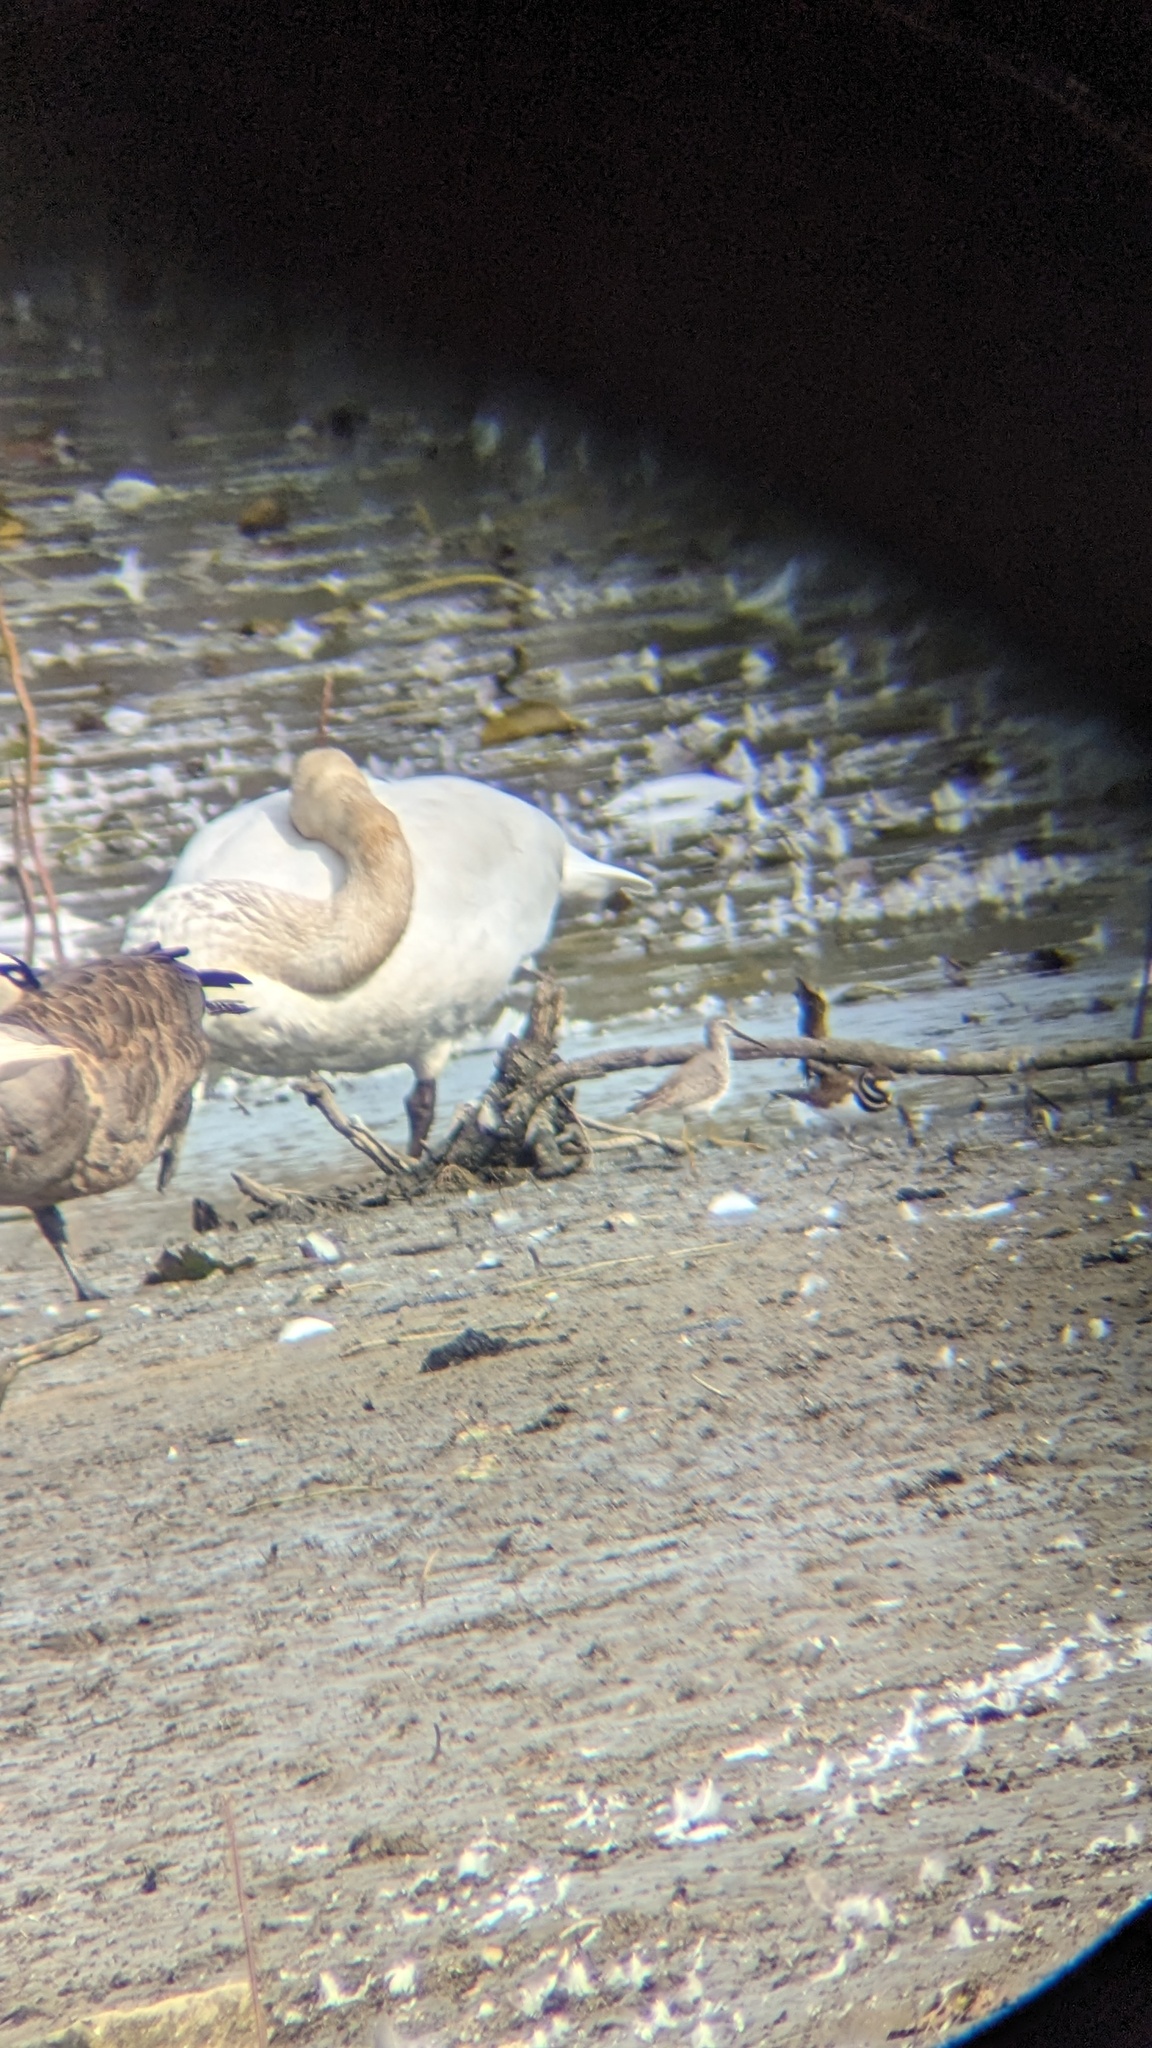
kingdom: Animalia
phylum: Chordata
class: Aves
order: Anseriformes
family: Anatidae
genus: Branta
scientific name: Branta canadensis
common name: Canada goose
